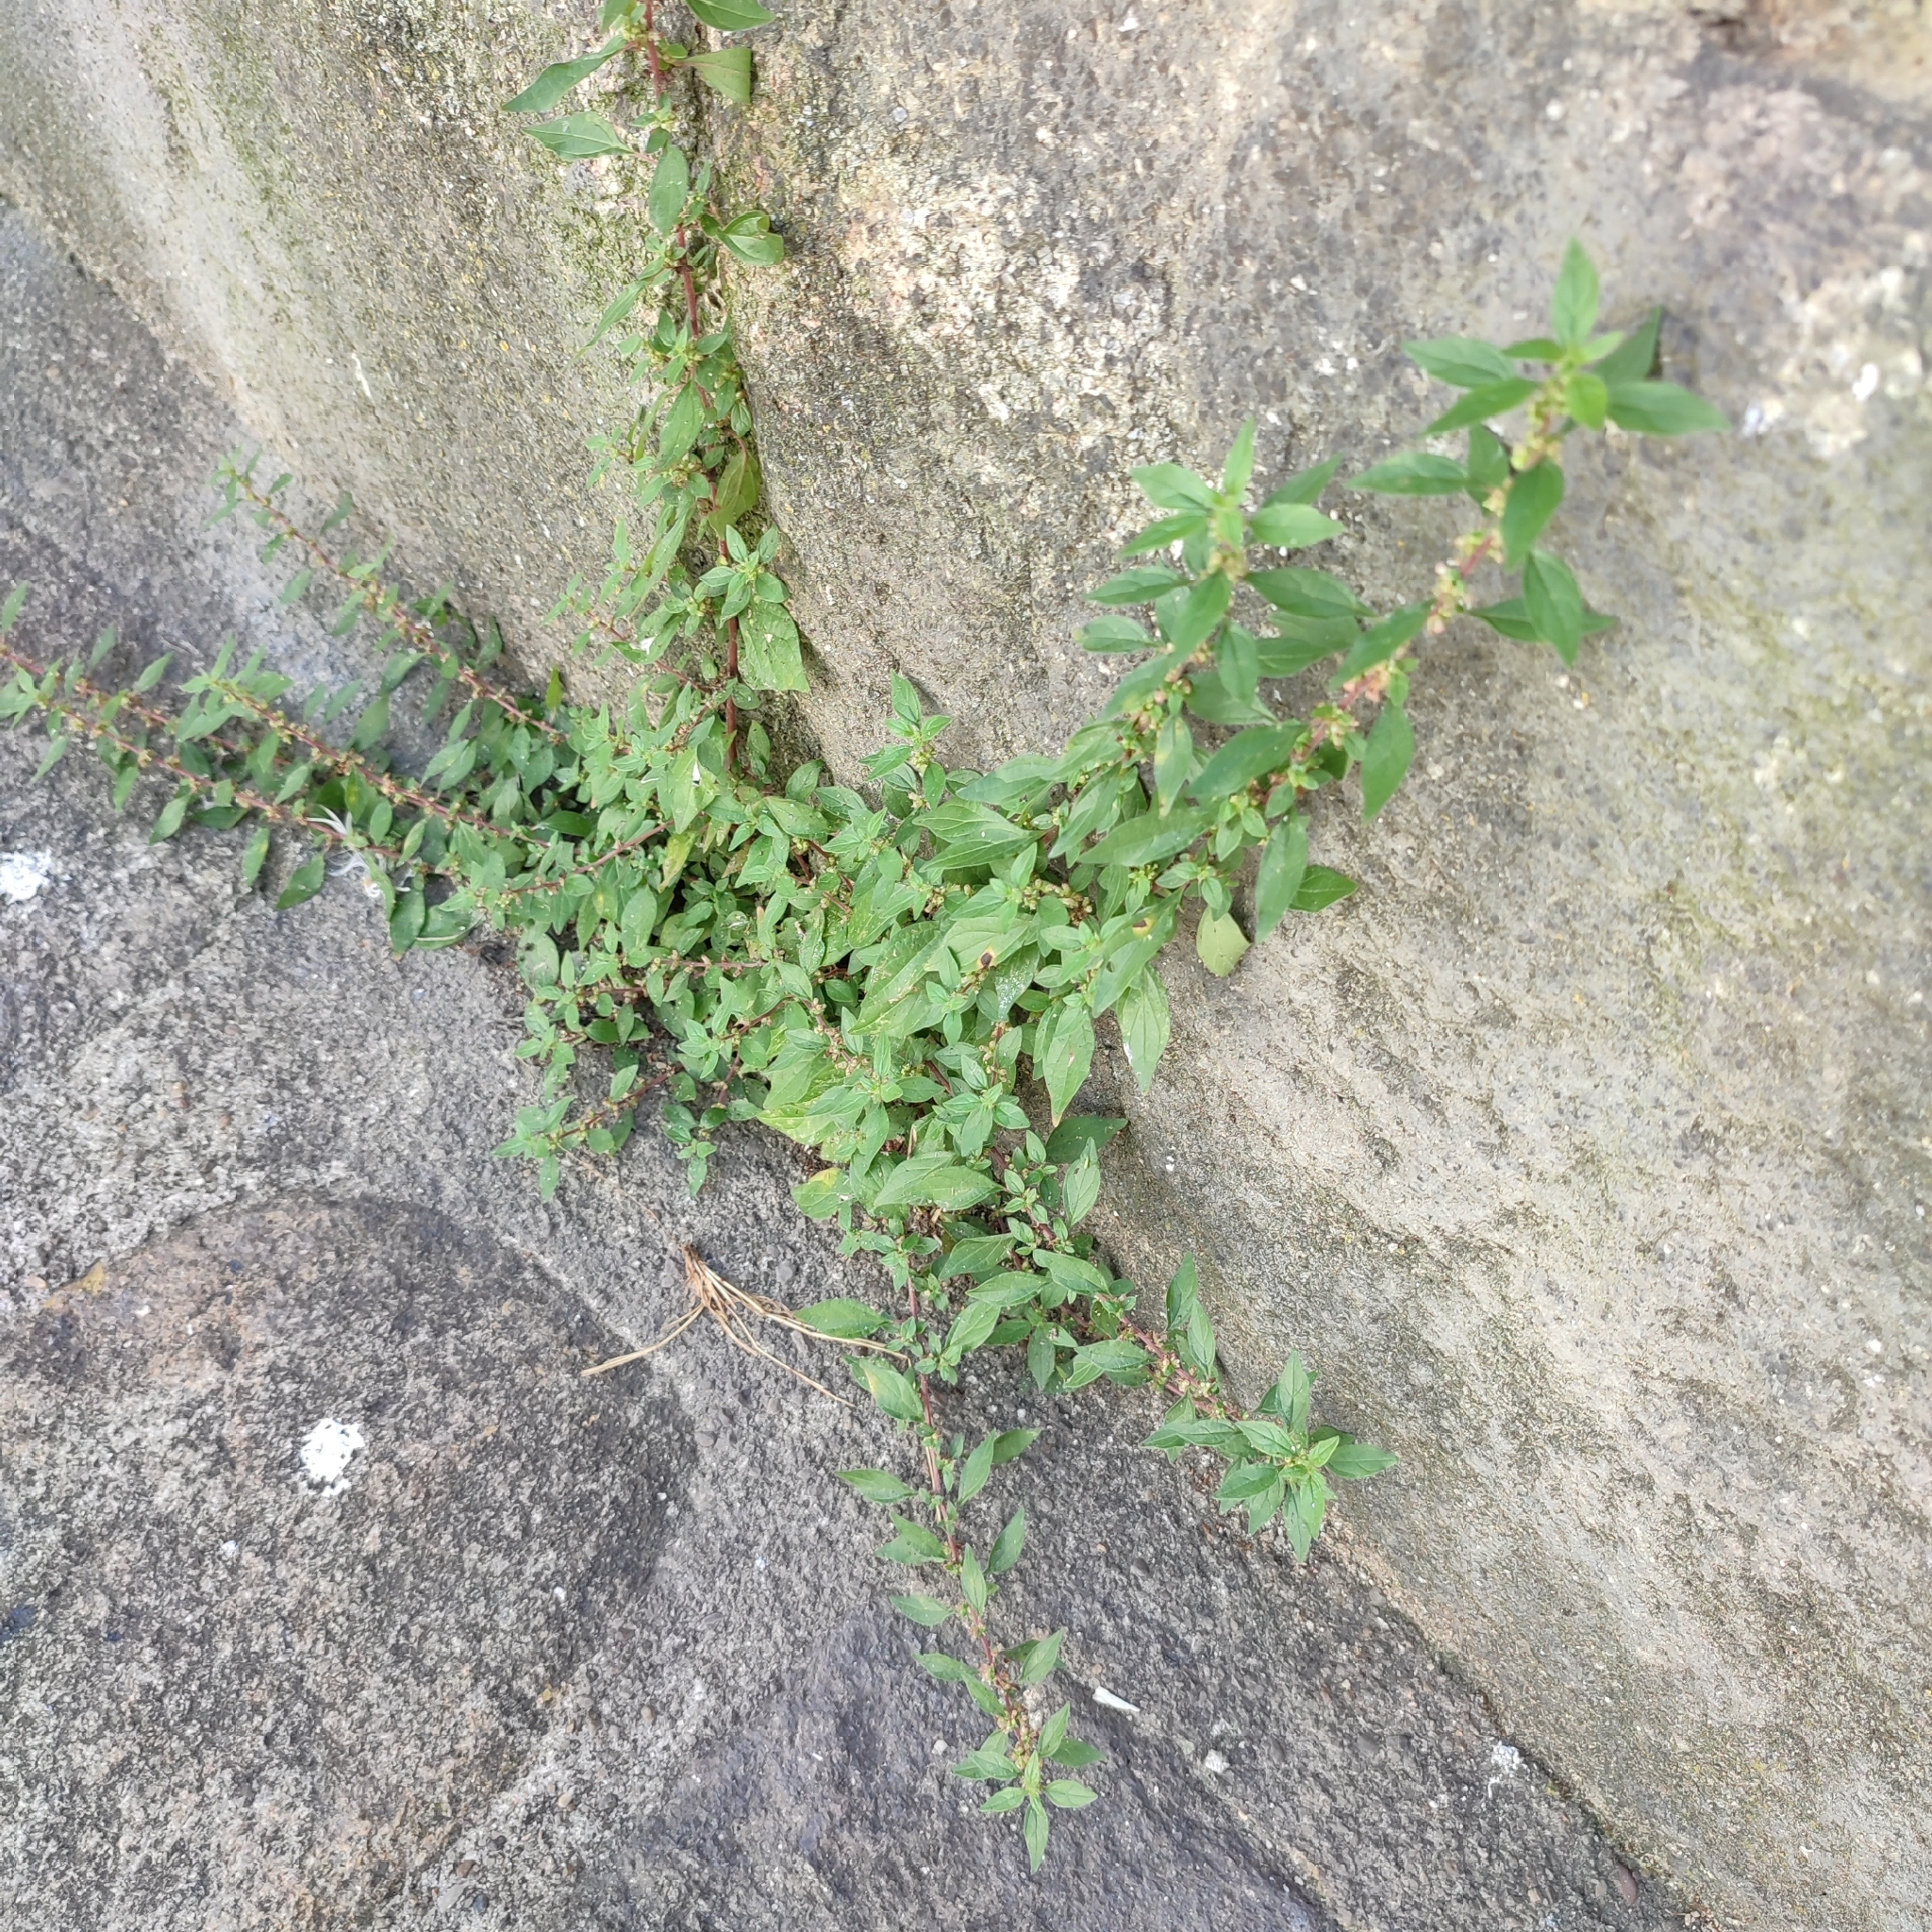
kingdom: Plantae
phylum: Tracheophyta
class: Magnoliopsida
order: Rosales
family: Urticaceae
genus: Parietaria
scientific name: Parietaria judaica
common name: Pellitory-of-the-wall
